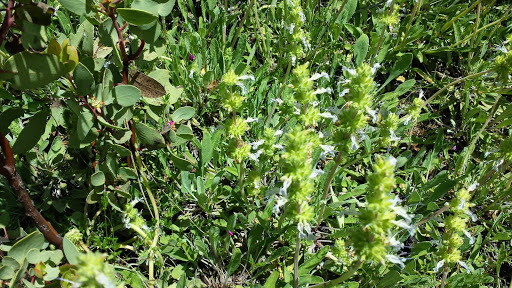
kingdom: Plantae
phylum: Tracheophyta
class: Magnoliopsida
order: Lamiales
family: Lamiaceae
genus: Salvia
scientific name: Salvia sonomensis
